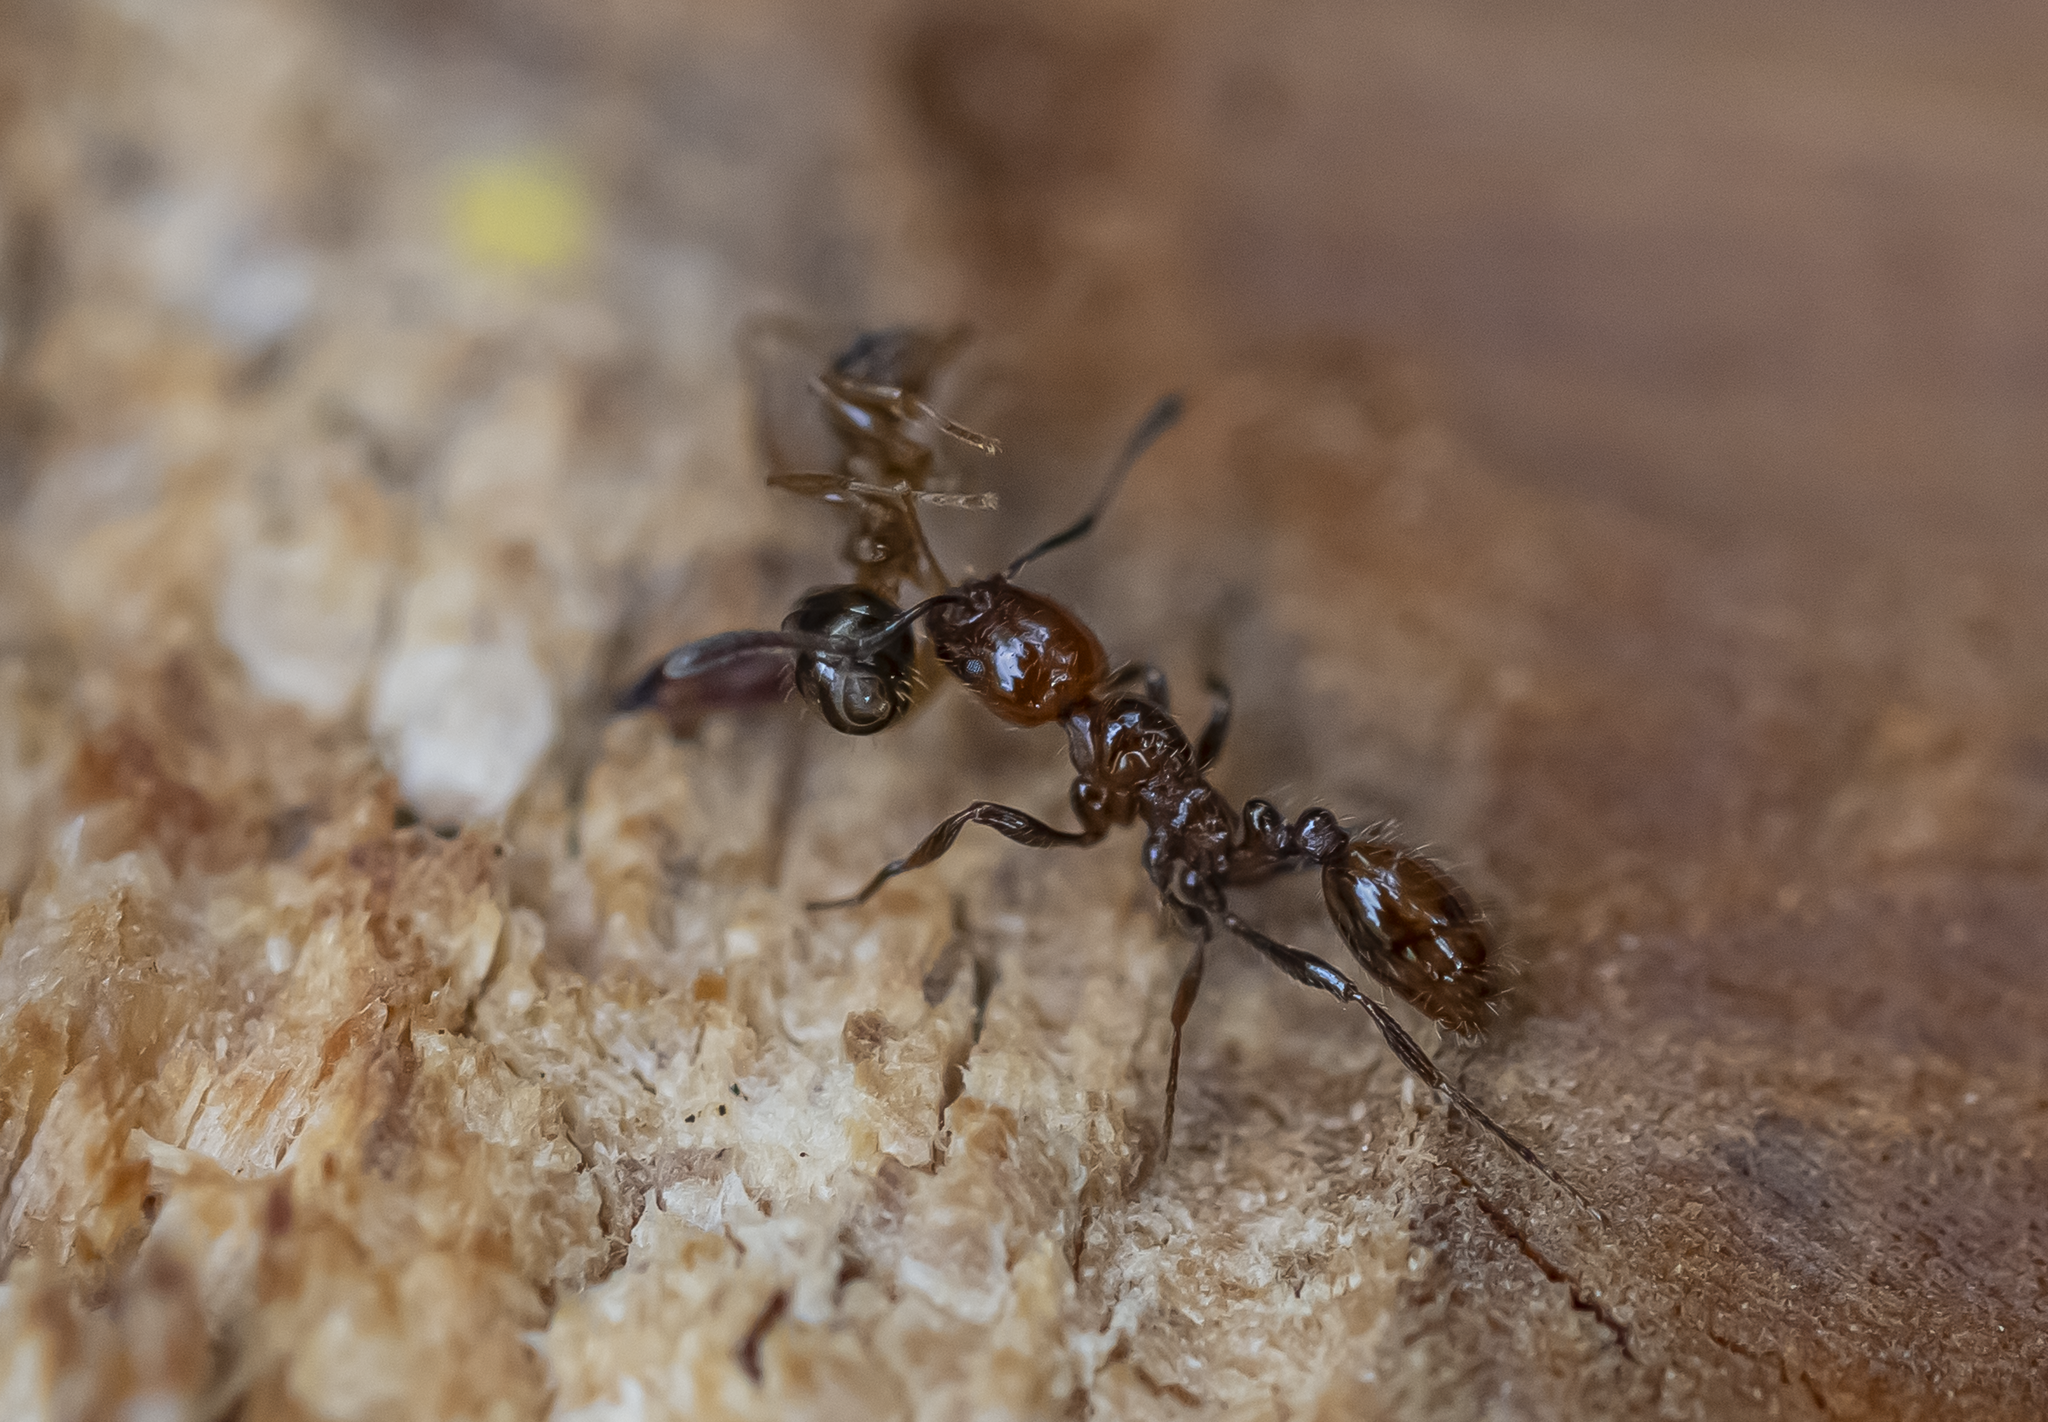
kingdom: Animalia
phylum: Arthropoda
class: Insecta
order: Hymenoptera
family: Formicidae
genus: Monomorium
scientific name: Monomorium antarcticum
